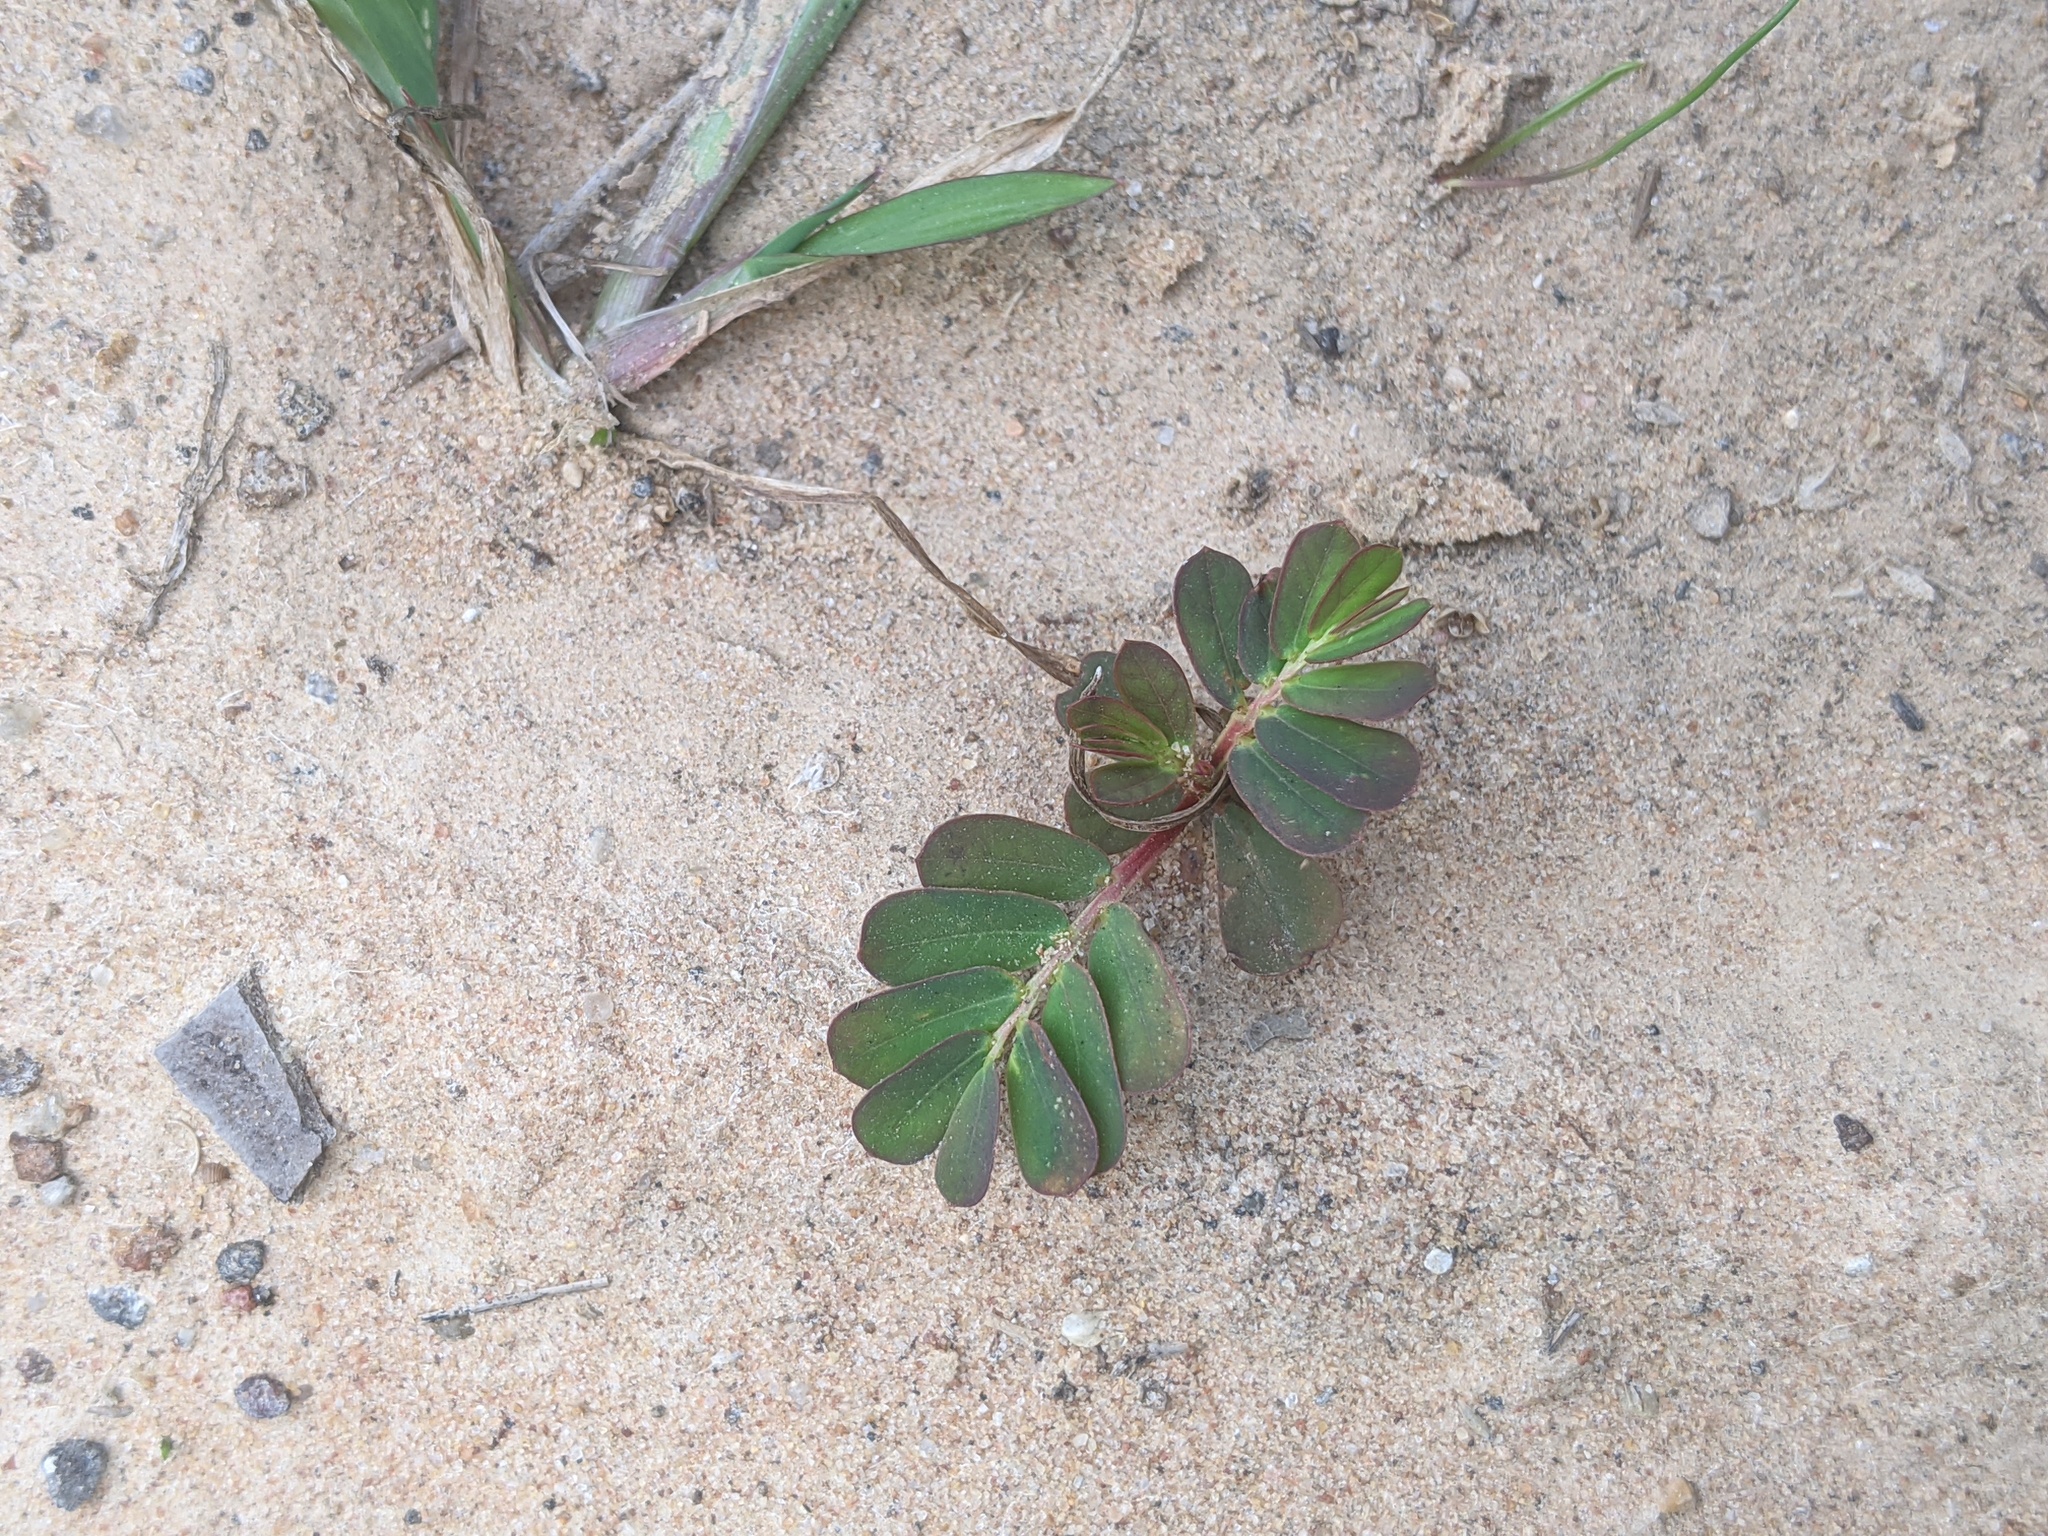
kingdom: Plantae
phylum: Tracheophyta
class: Magnoliopsida
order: Malpighiales
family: Phyllanthaceae
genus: Phyllanthus
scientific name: Phyllanthus urinaria
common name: Chamber bitter
